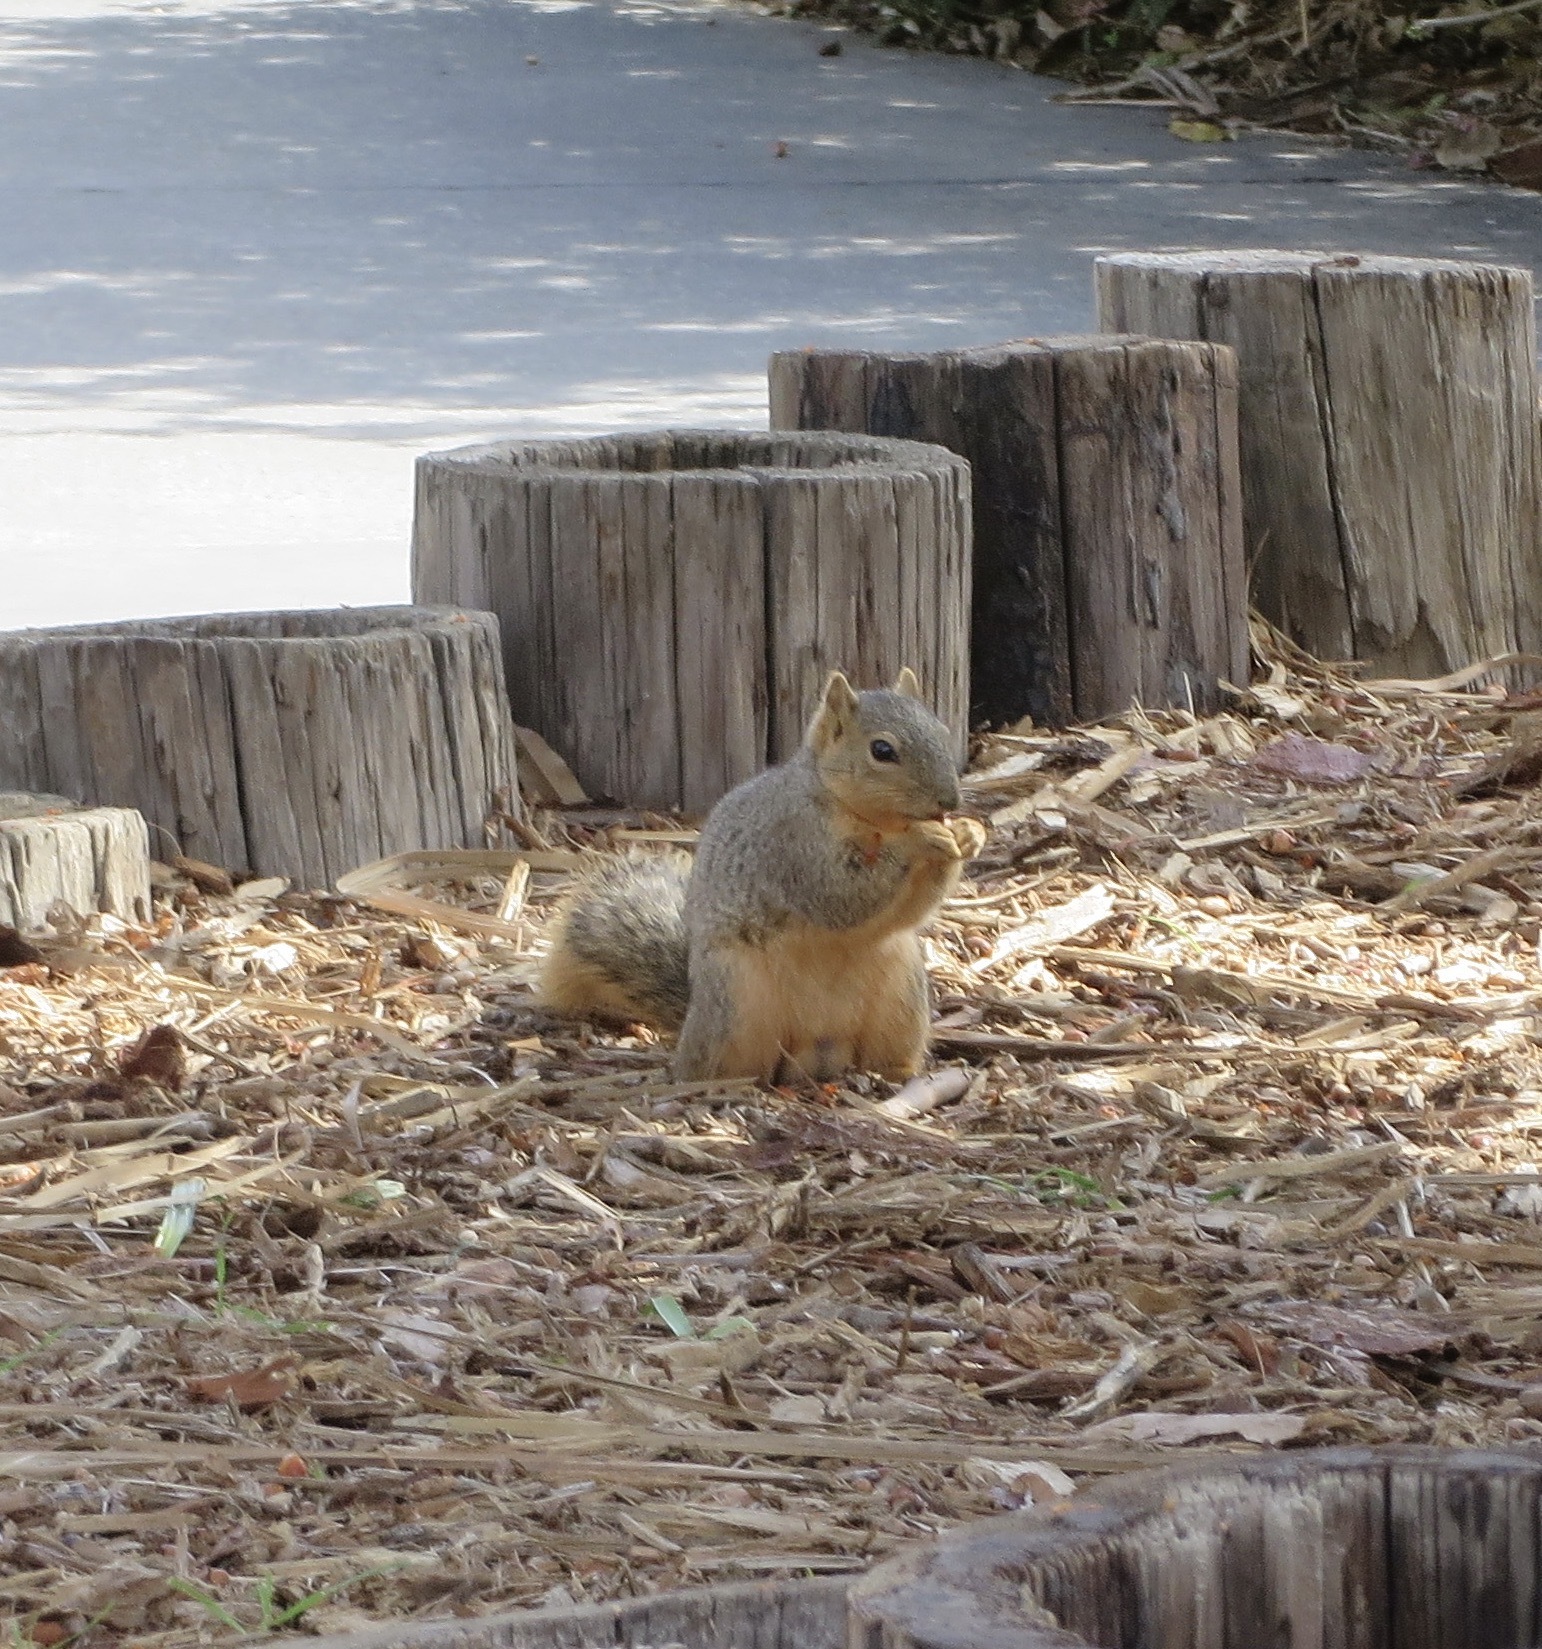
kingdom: Animalia
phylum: Chordata
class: Mammalia
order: Rodentia
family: Sciuridae
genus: Sciurus
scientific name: Sciurus niger
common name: Fox squirrel
